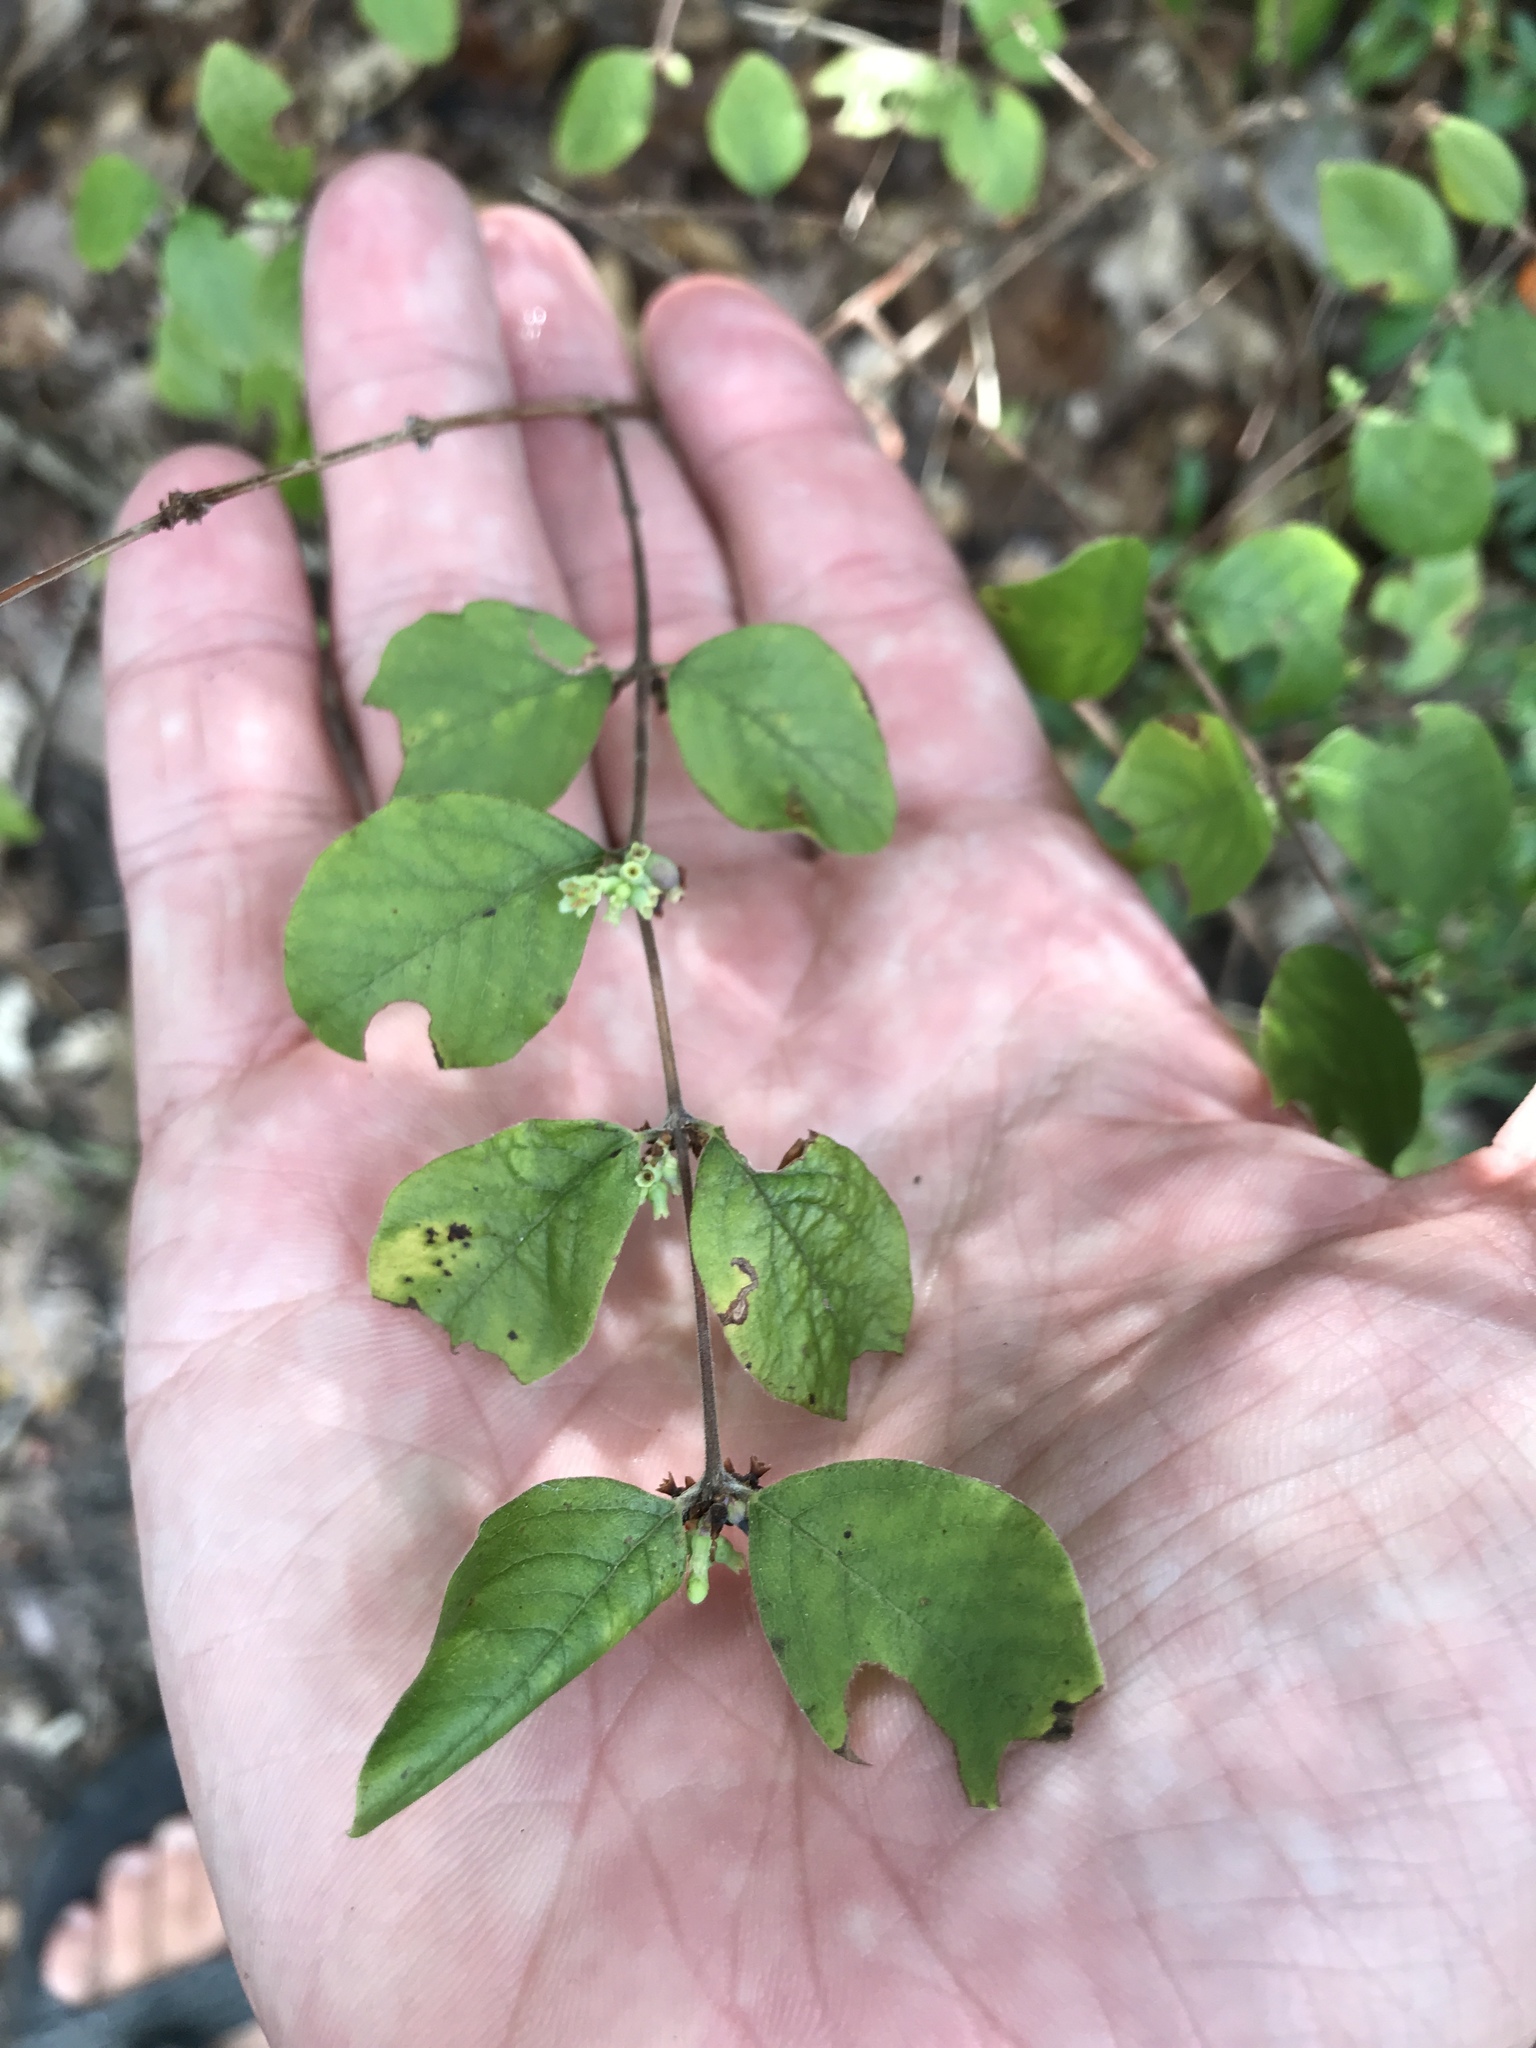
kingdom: Plantae
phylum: Tracheophyta
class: Magnoliopsida
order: Dipsacales
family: Caprifoliaceae
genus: Symphoricarpos
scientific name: Symphoricarpos orbiculatus
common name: Coralberry
